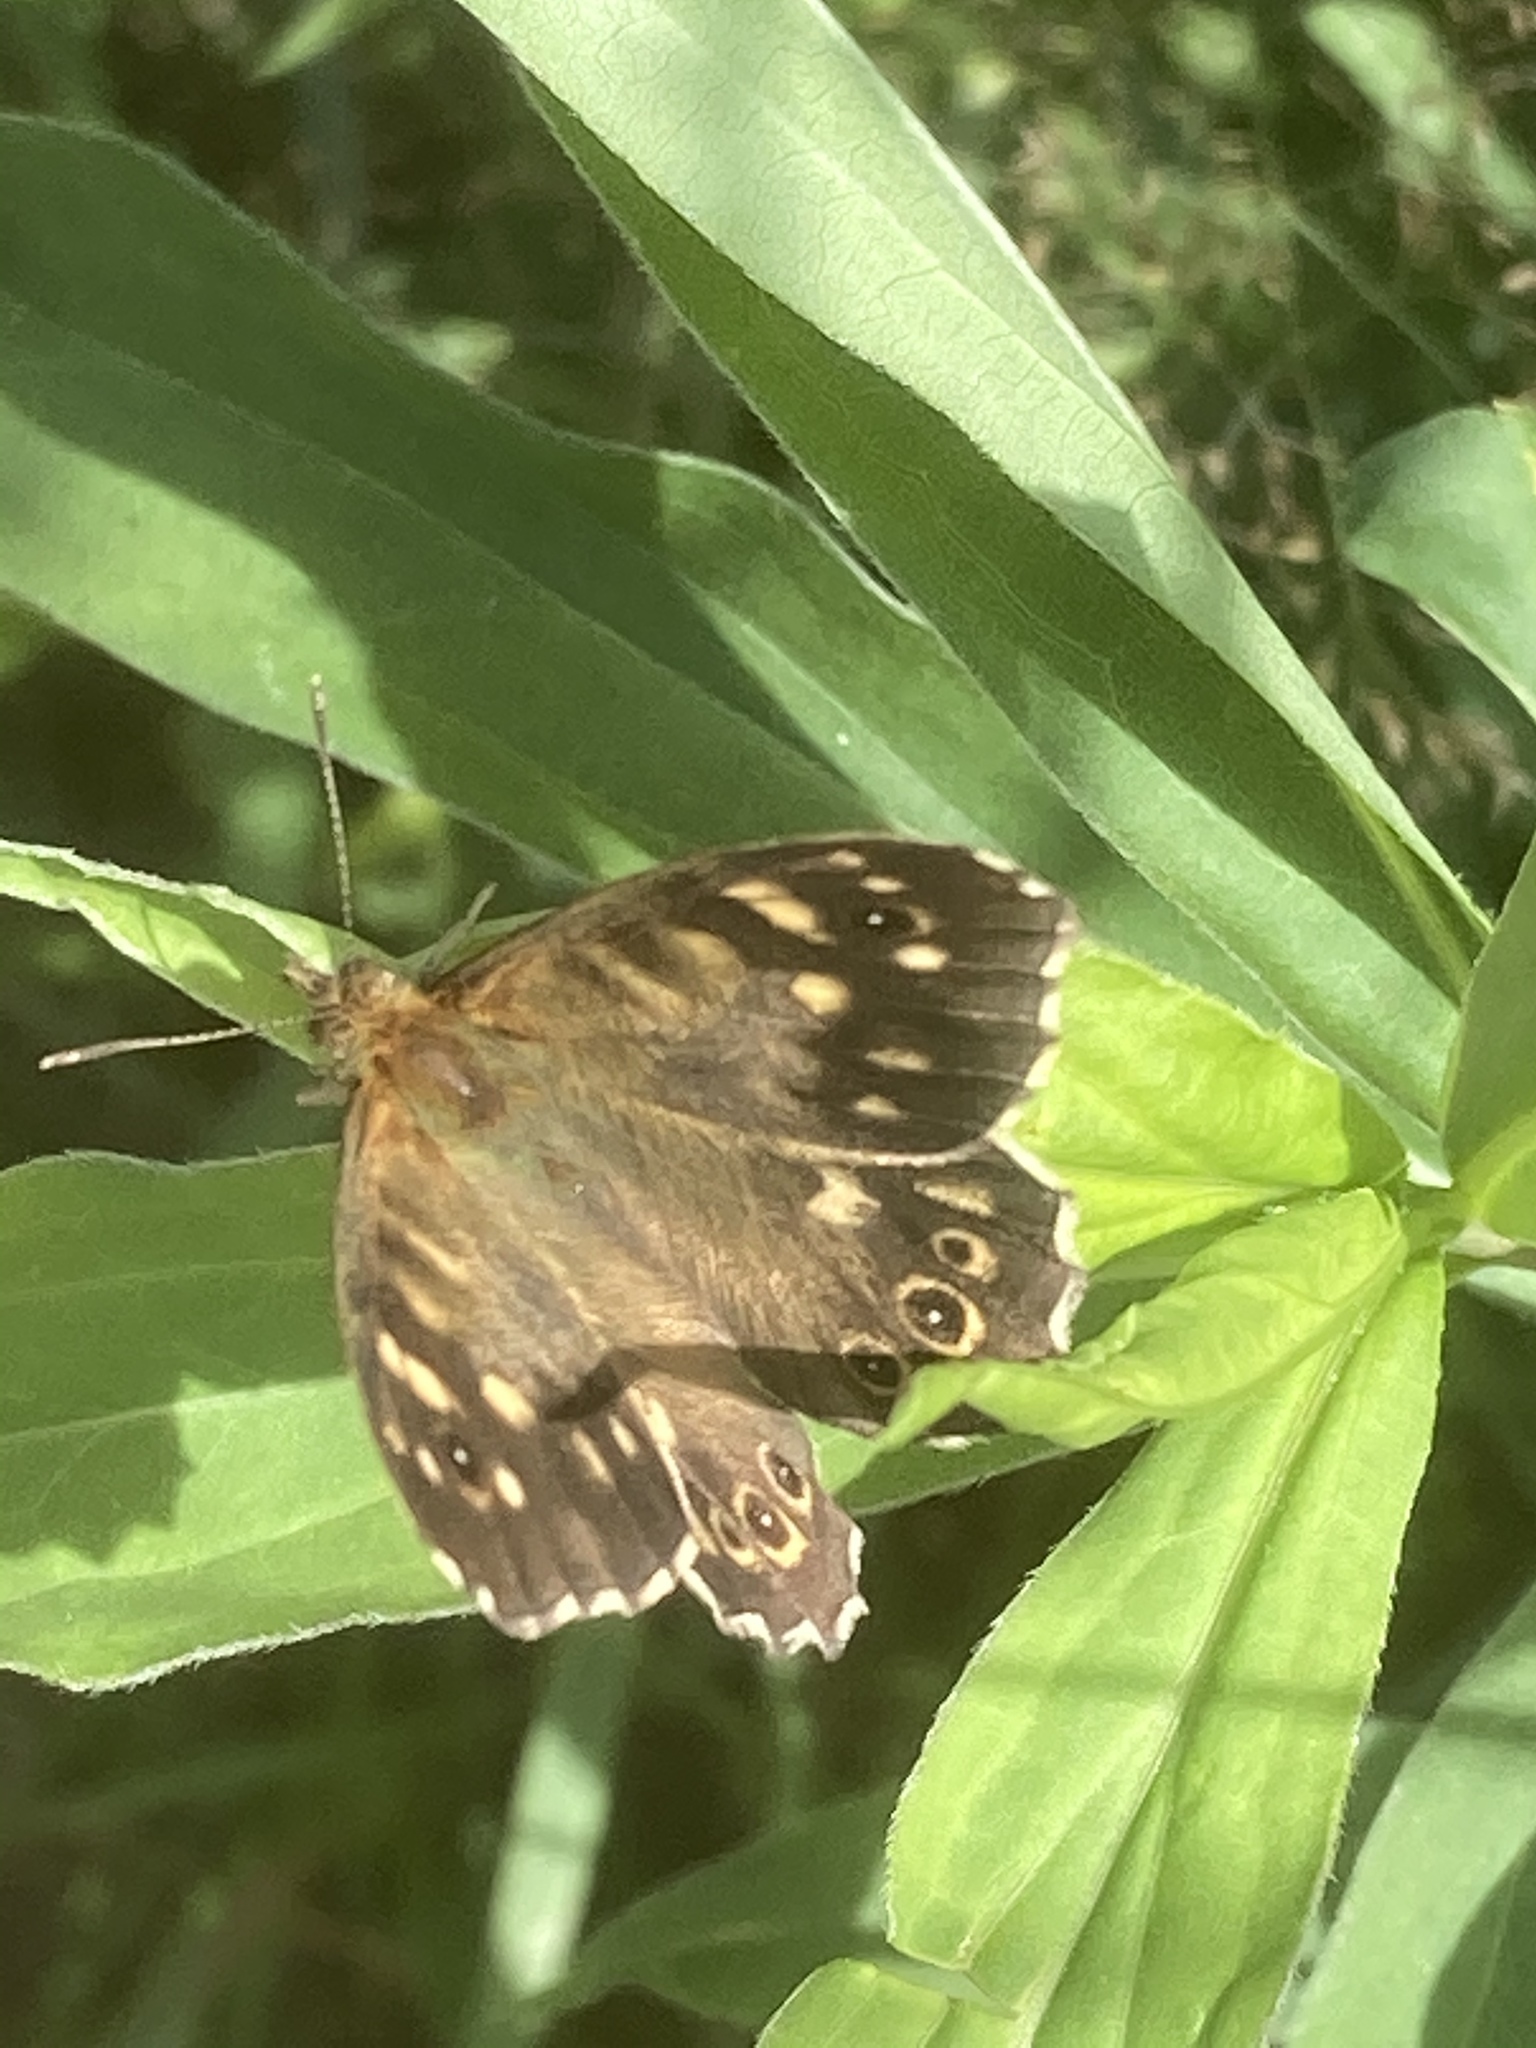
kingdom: Animalia
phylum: Arthropoda
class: Insecta
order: Lepidoptera
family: Nymphalidae
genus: Pararge
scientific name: Pararge aegeria
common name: Speckled wood
